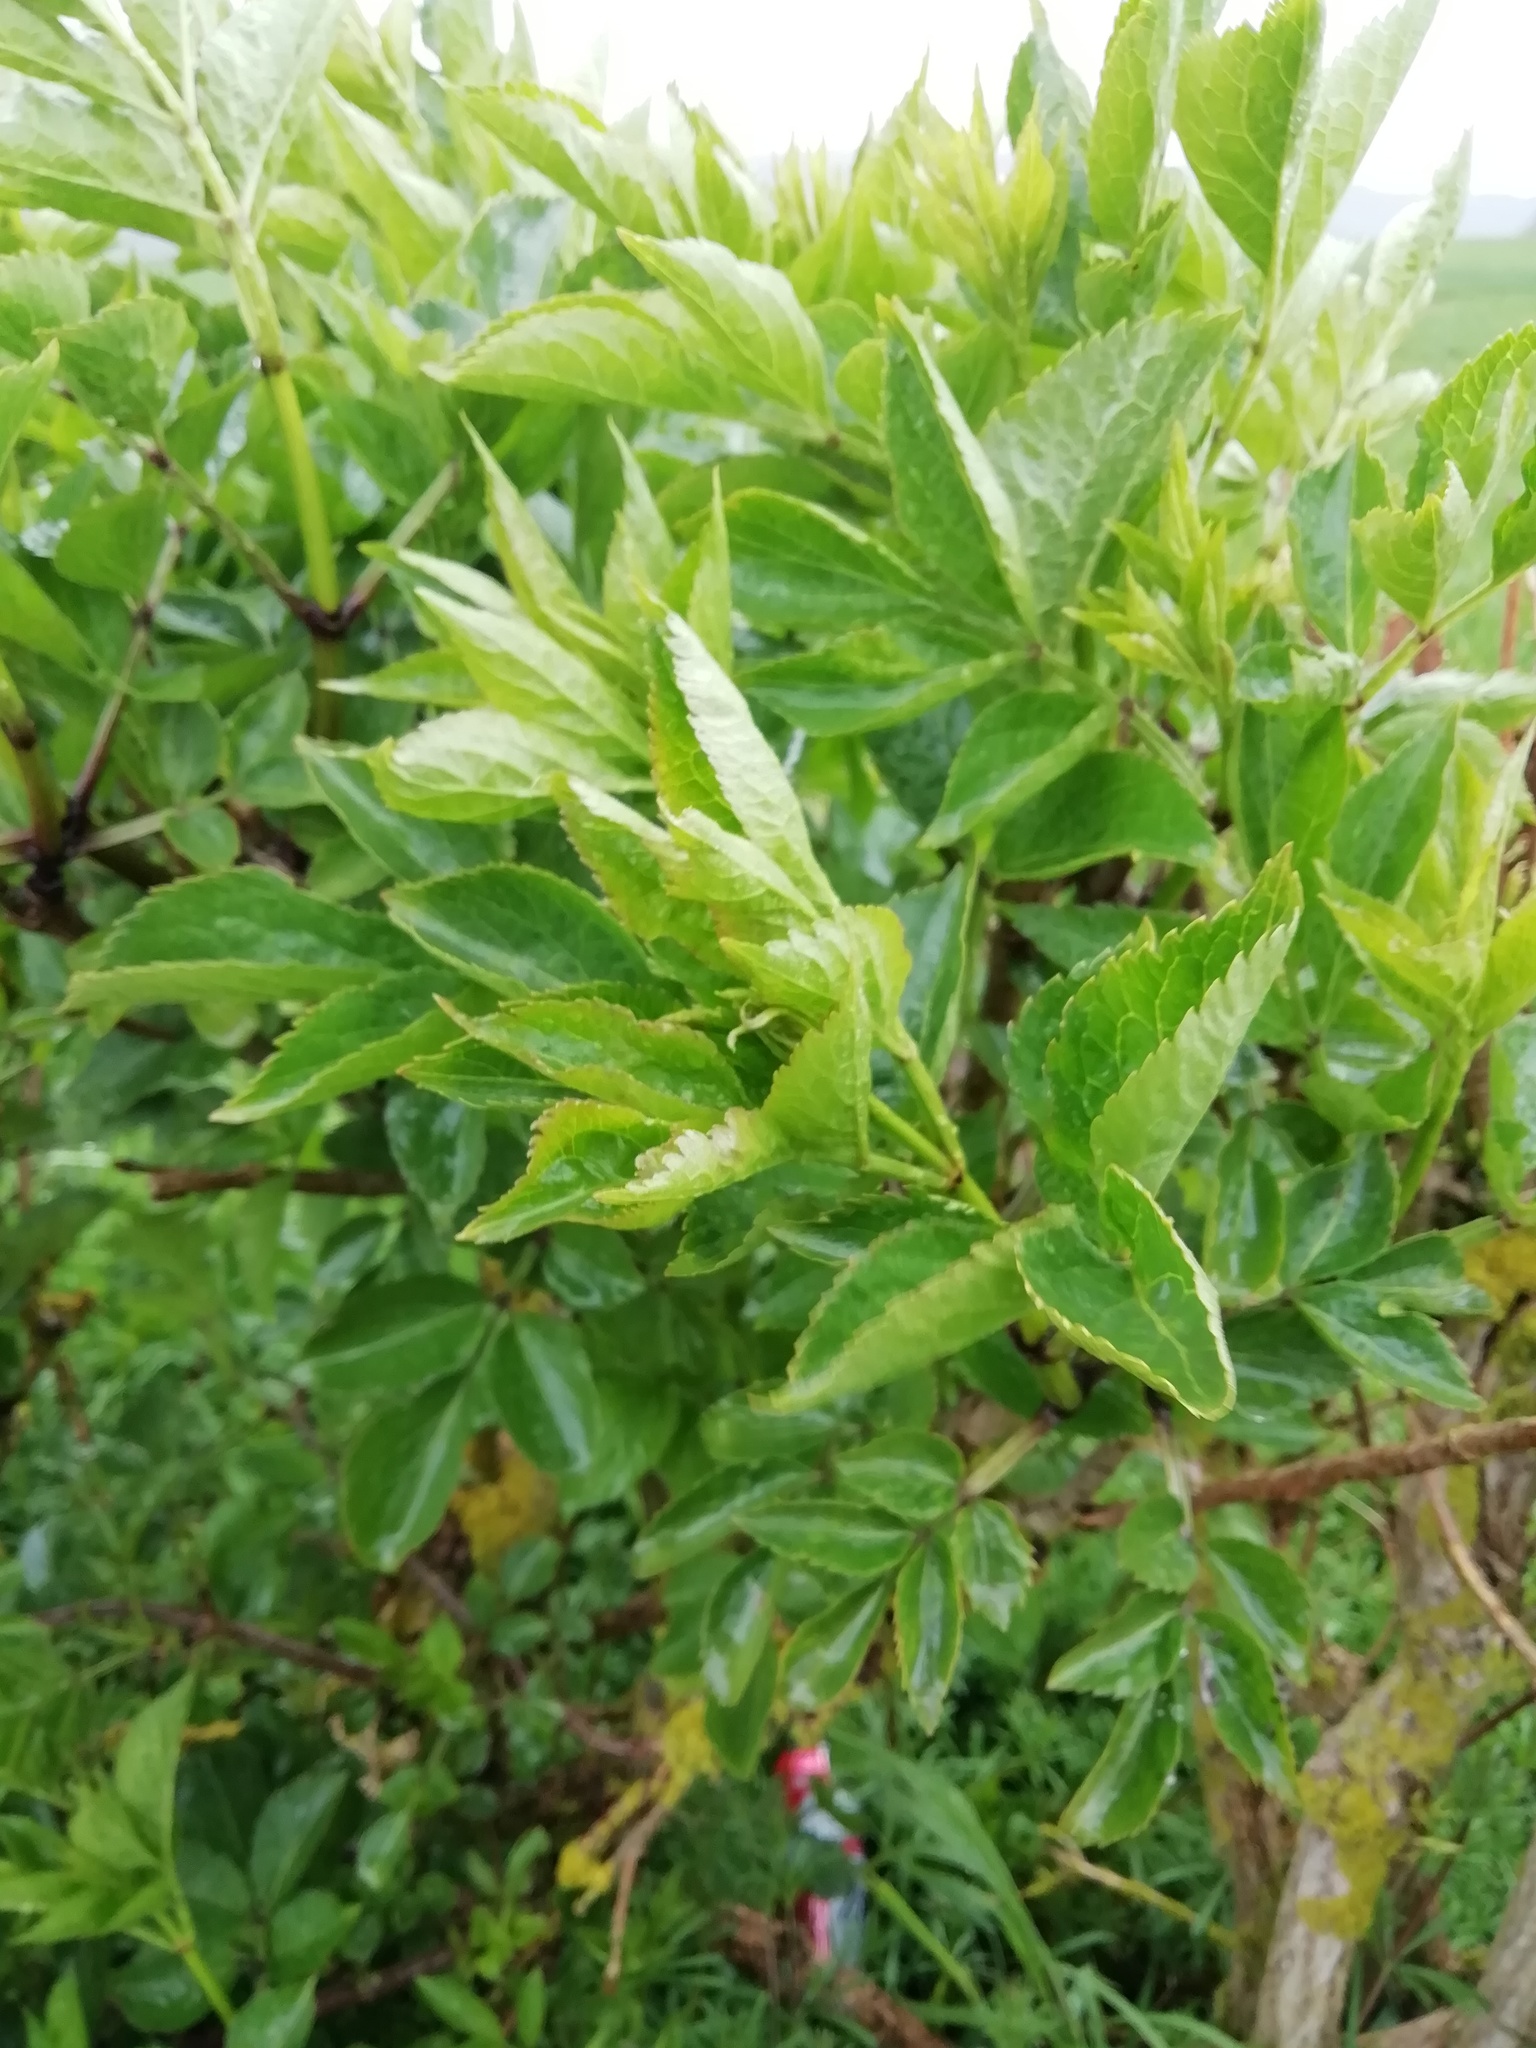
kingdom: Plantae
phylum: Tracheophyta
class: Magnoliopsida
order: Dipsacales
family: Viburnaceae
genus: Sambucus
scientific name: Sambucus nigra
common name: Elder
